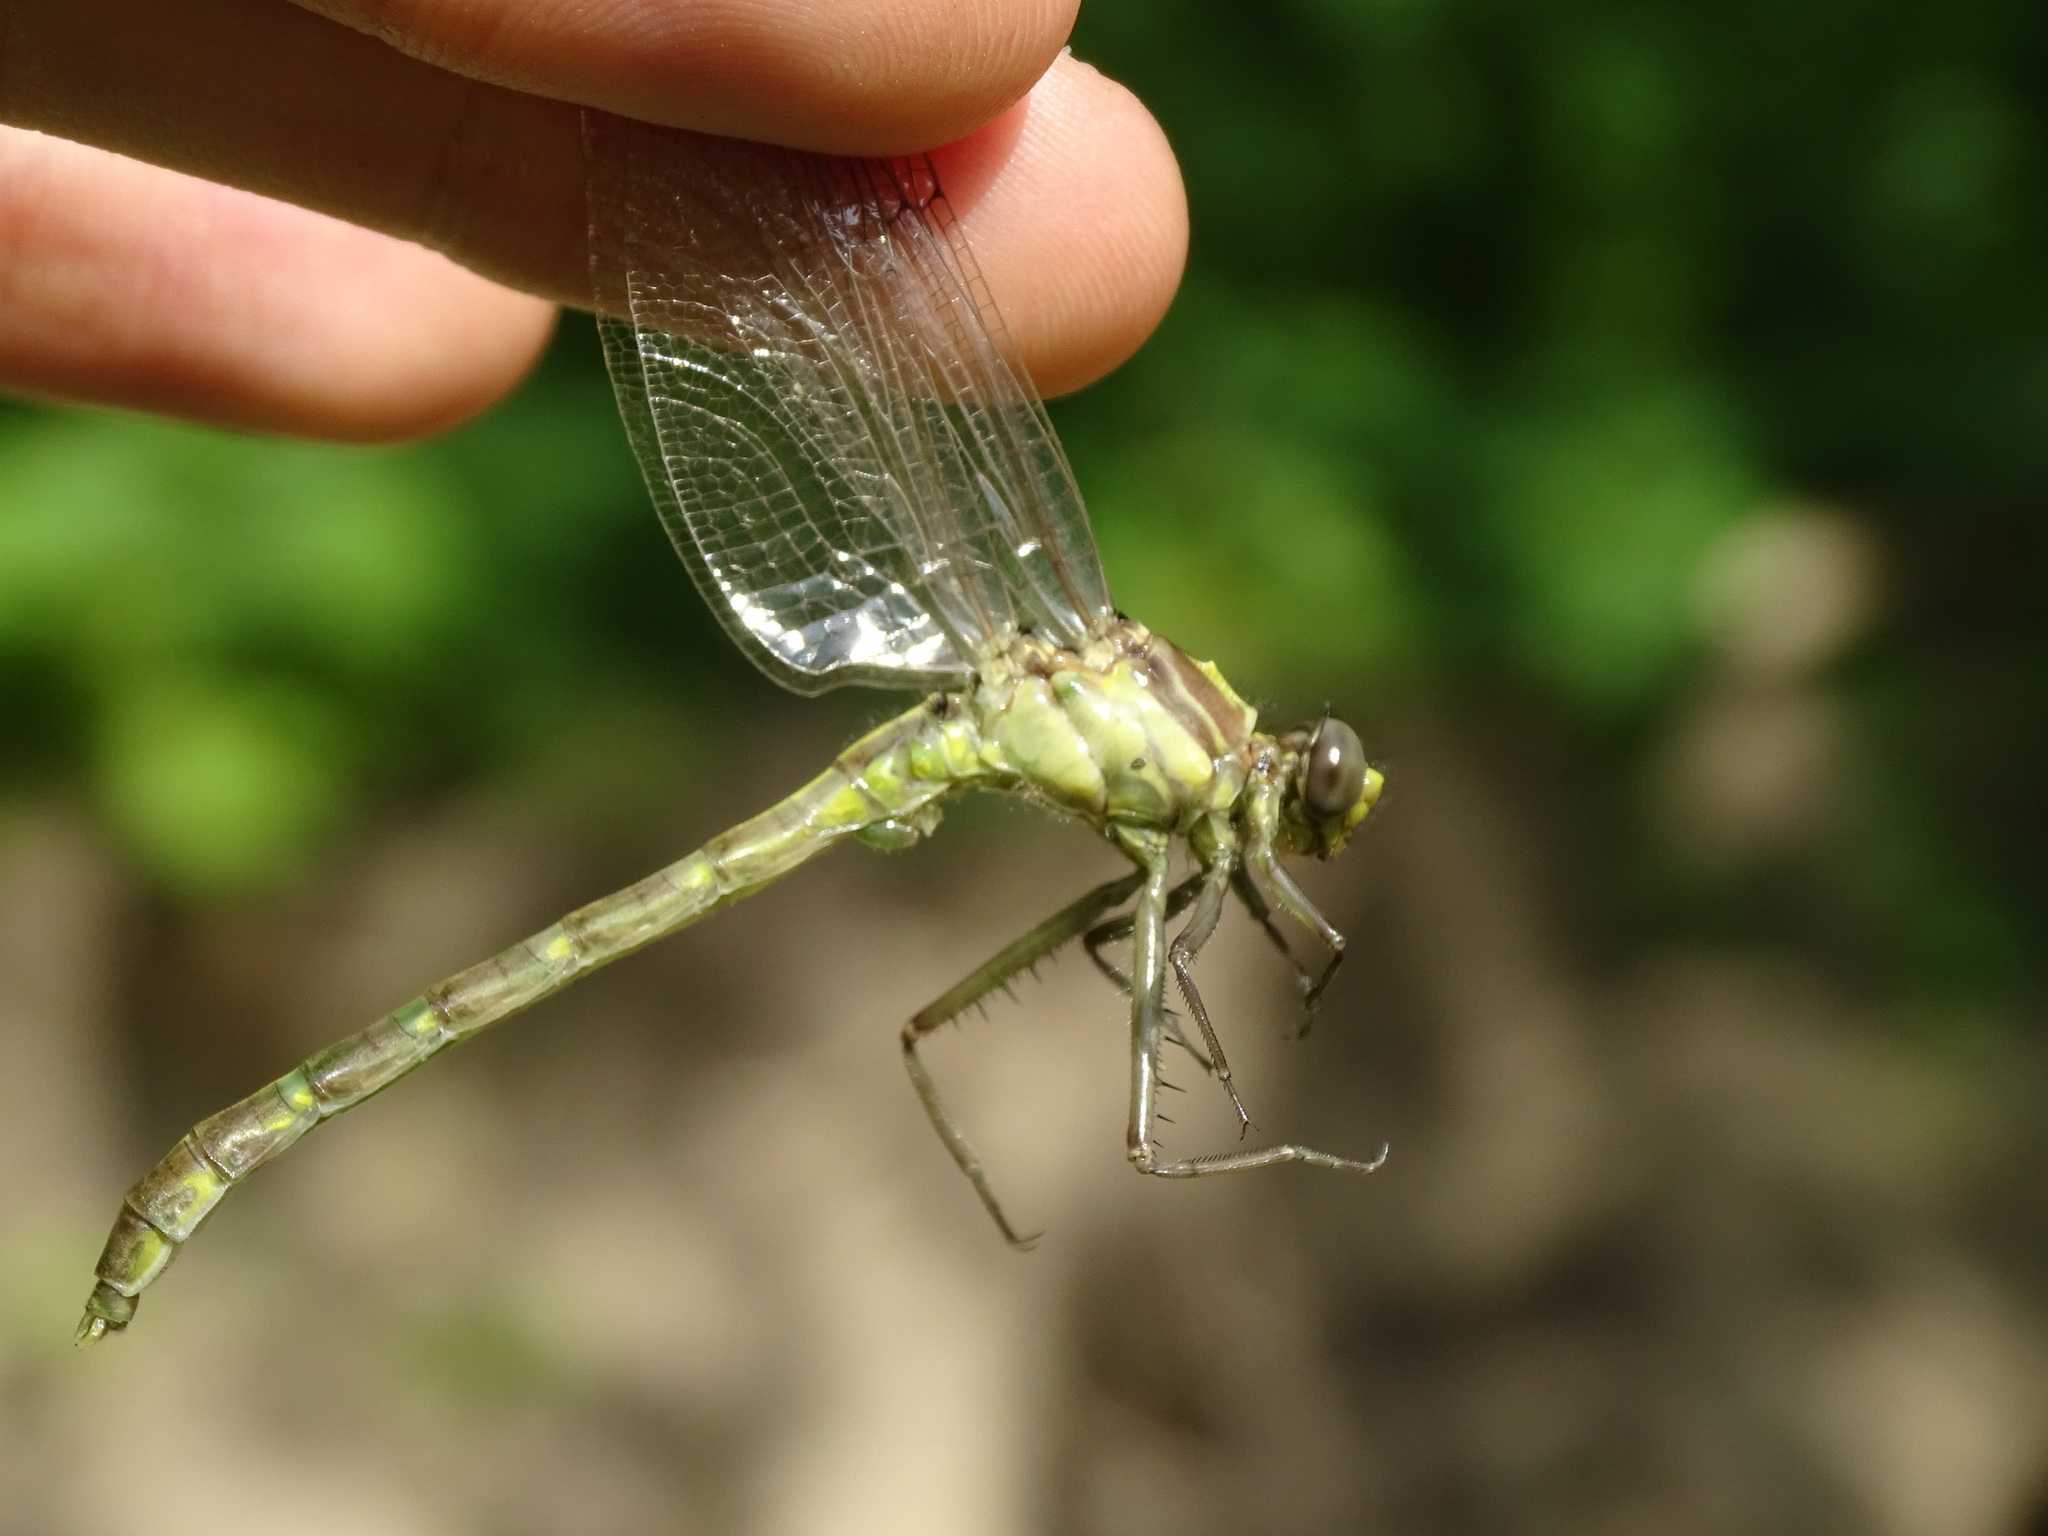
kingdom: Animalia
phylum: Arthropoda
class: Insecta
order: Odonata
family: Gomphidae
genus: Dromogomphus
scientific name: Dromogomphus spinosus
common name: Black-shouldered spinyleg
